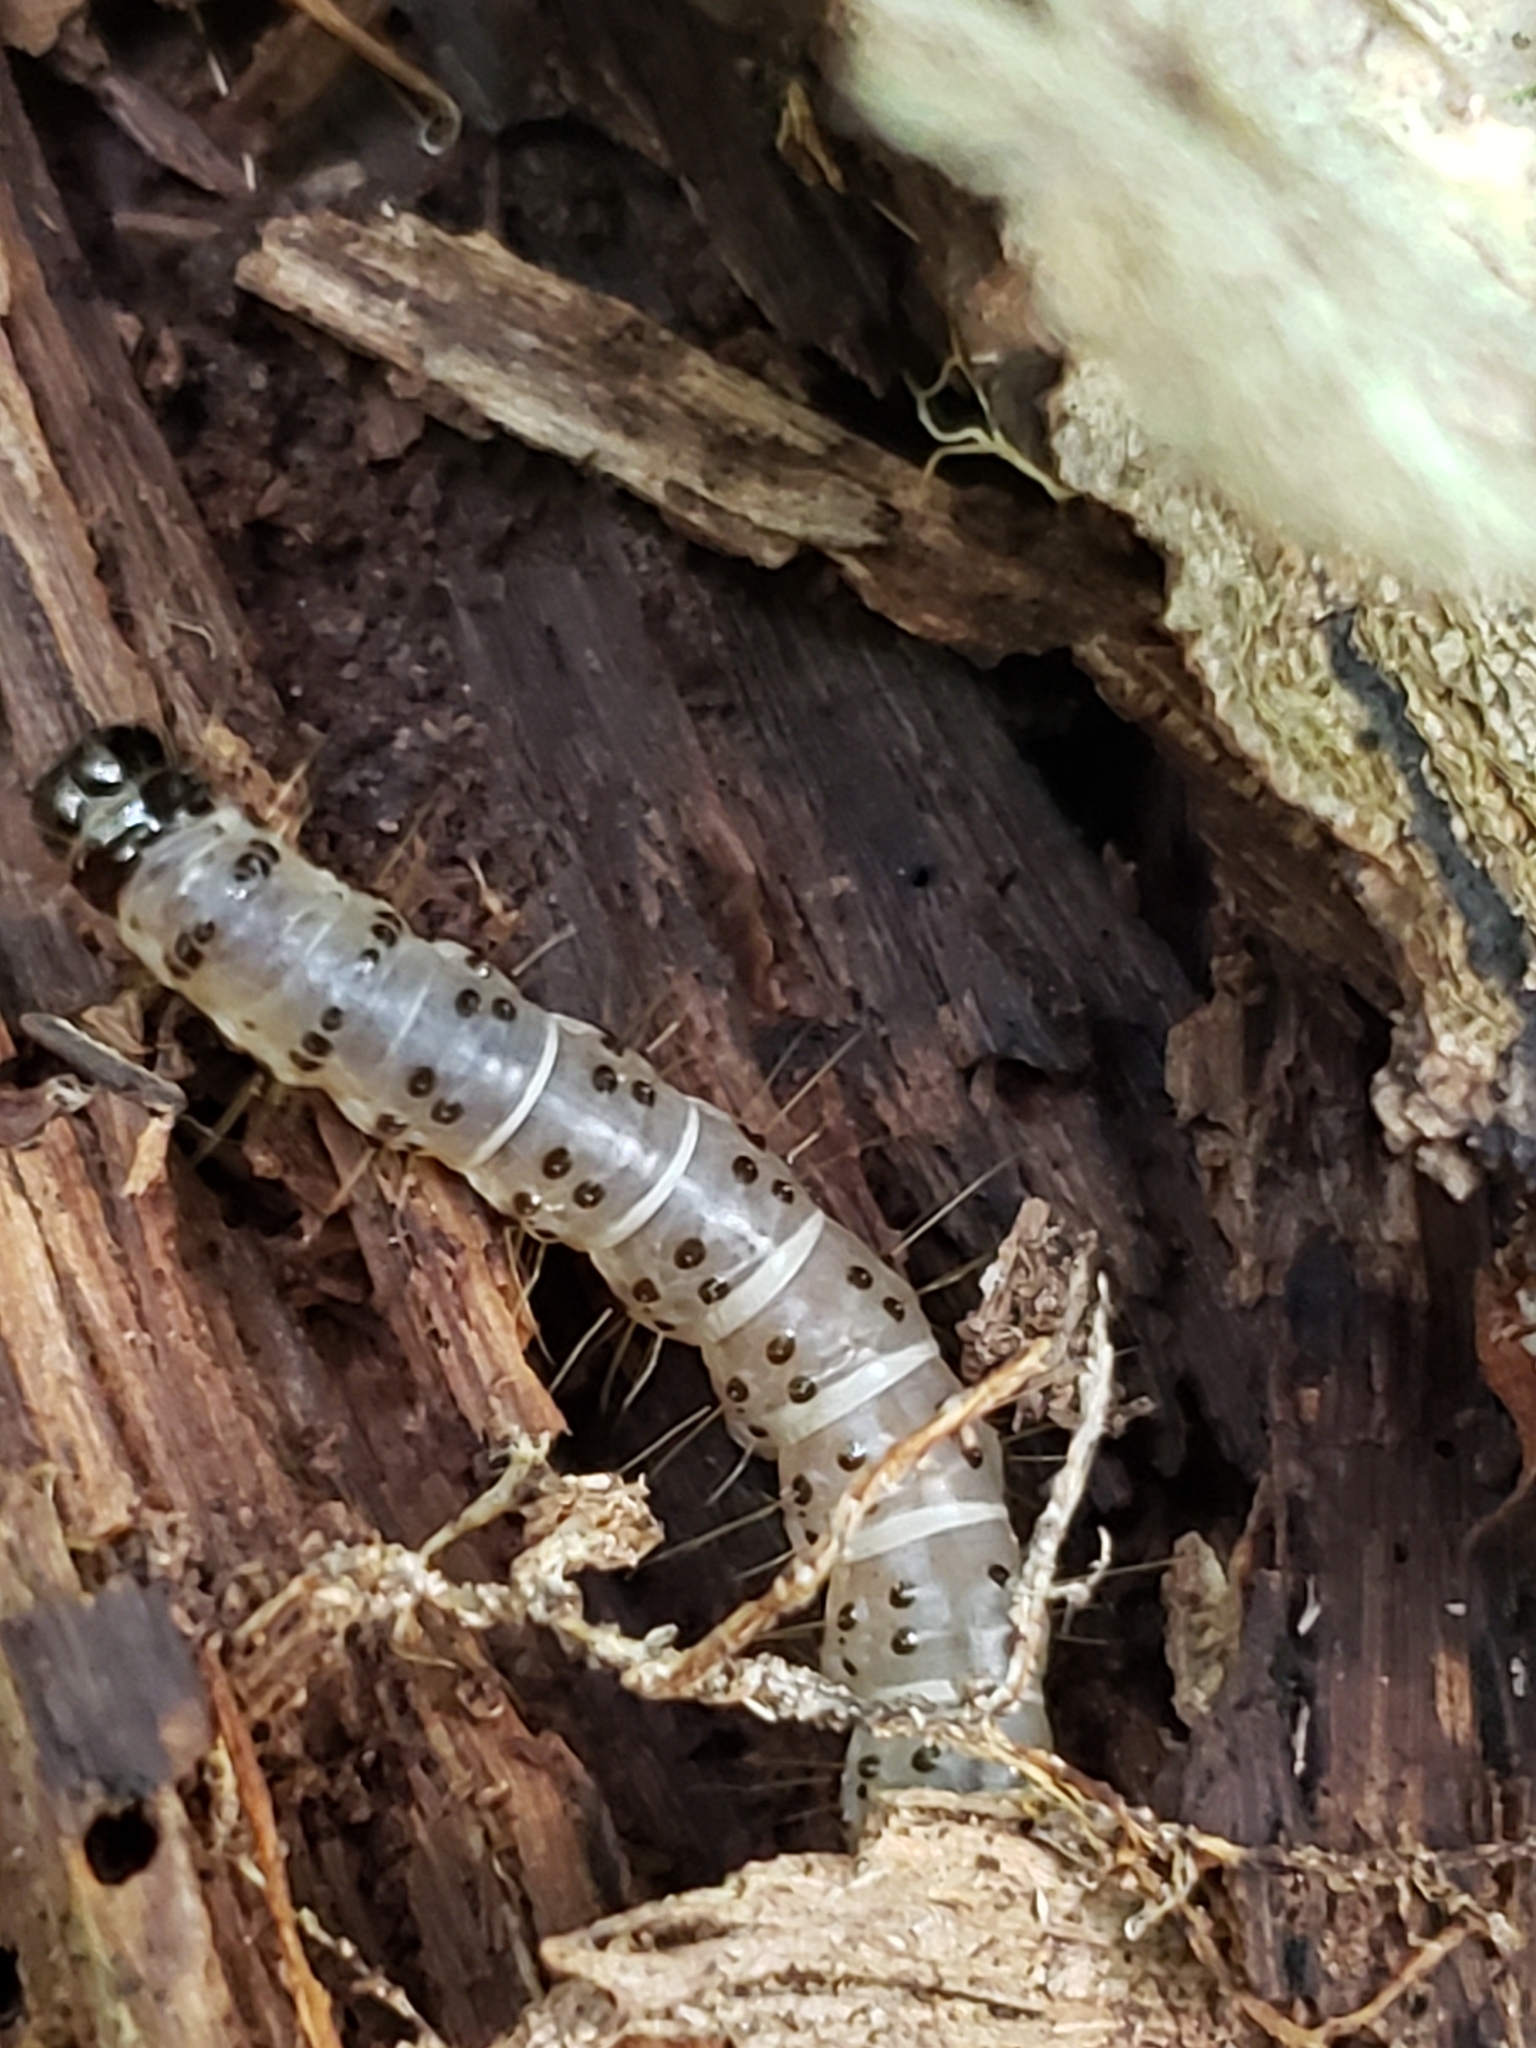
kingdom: Animalia
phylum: Arthropoda
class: Insecta
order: Lepidoptera
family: Erebidae
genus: Scolecocampa
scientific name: Scolecocampa liburna
